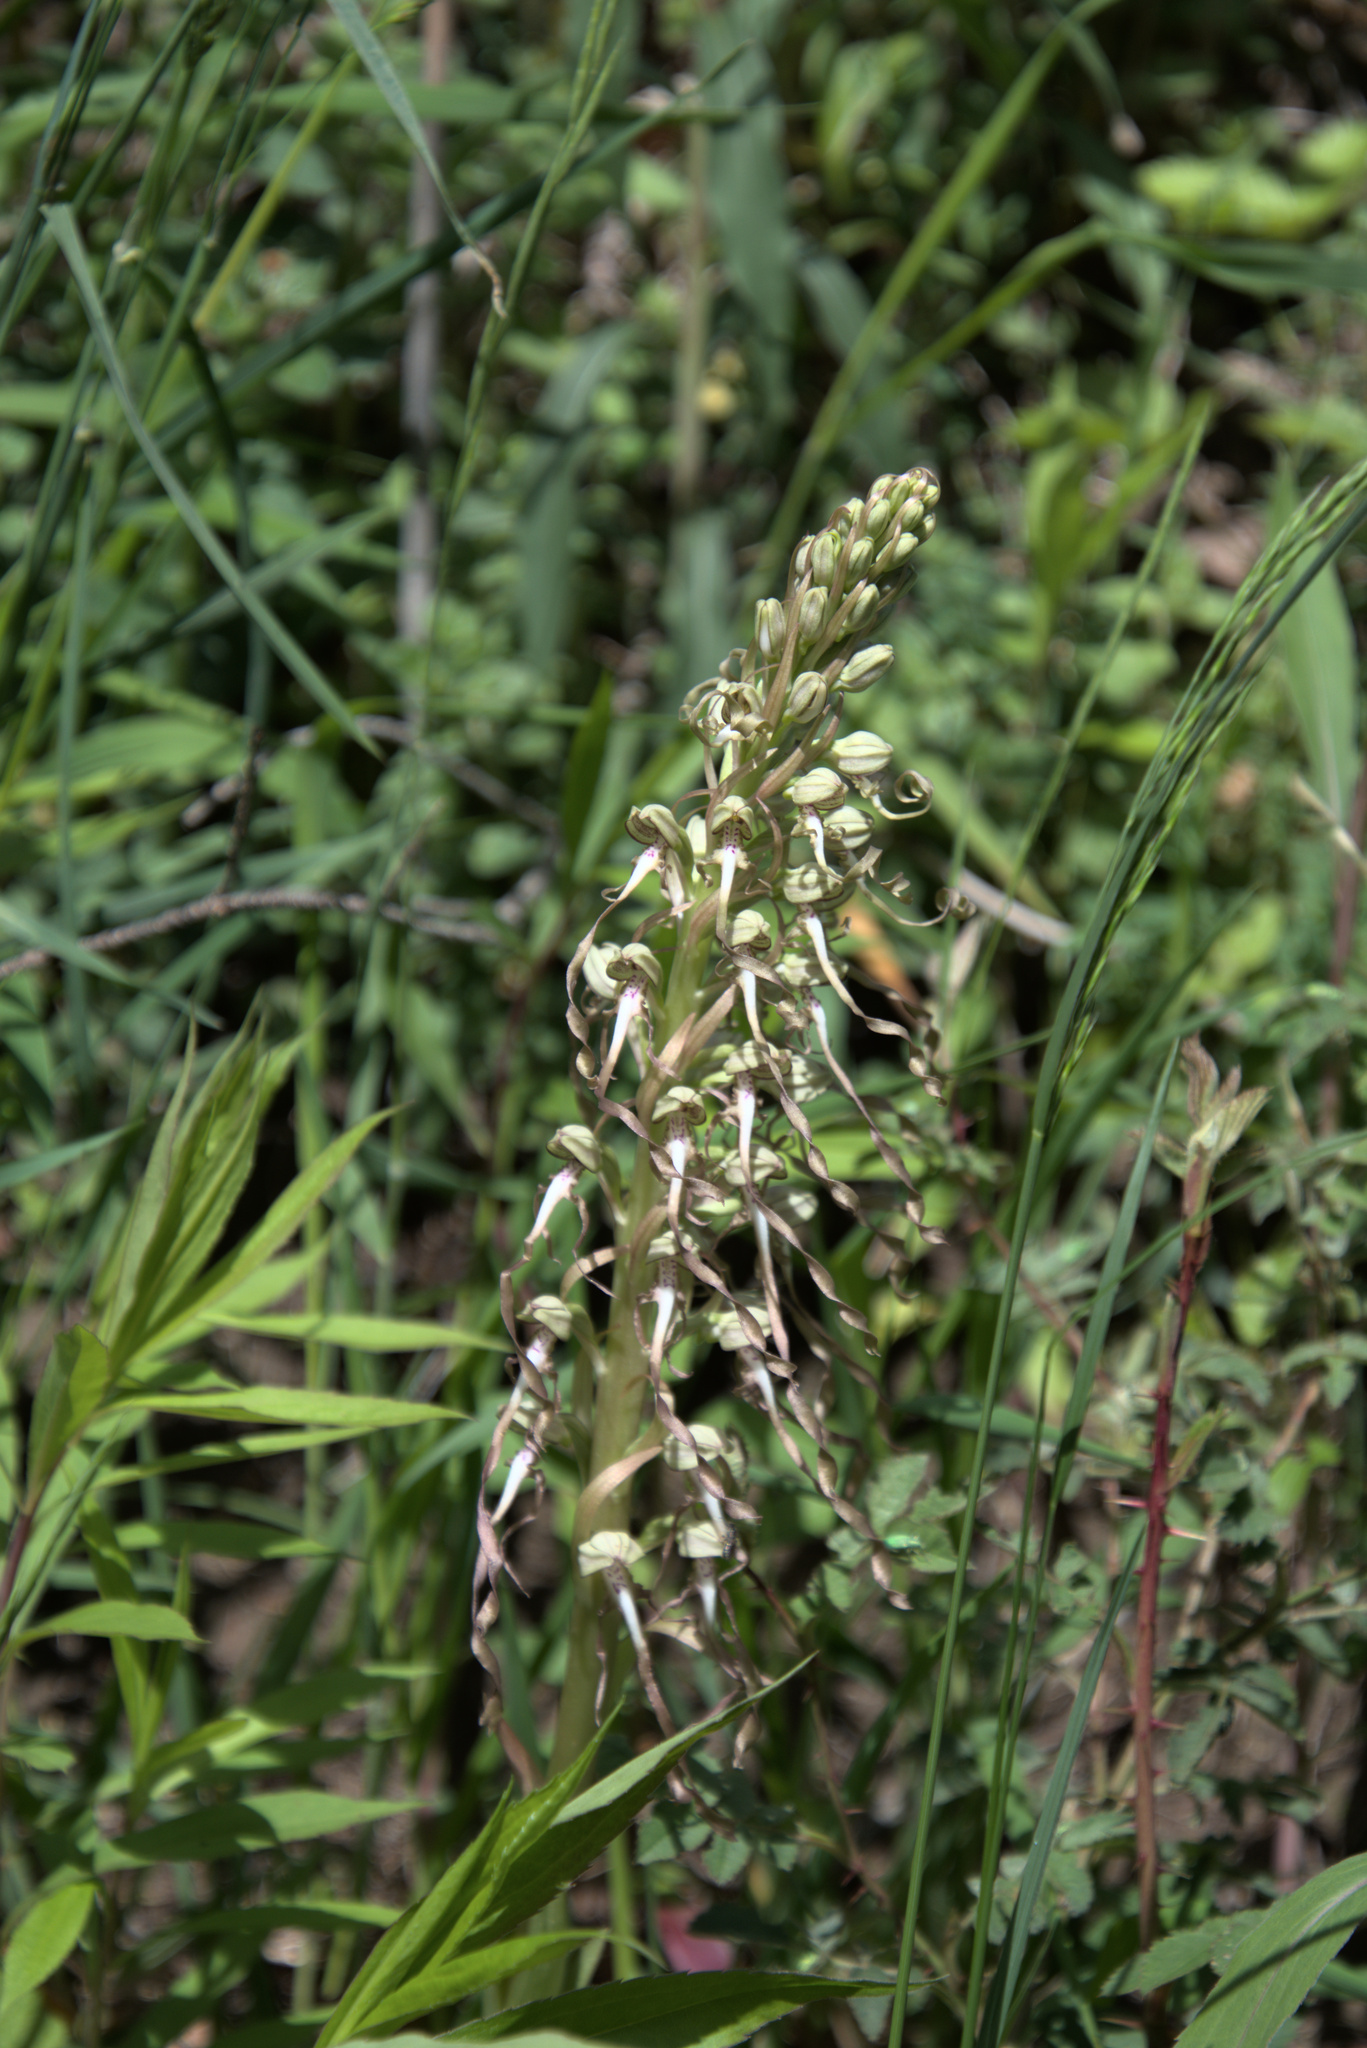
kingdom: Plantae
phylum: Tracheophyta
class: Liliopsida
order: Asparagales
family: Orchidaceae
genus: Himantoglossum
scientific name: Himantoglossum hircinum
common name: Lizard orchid
